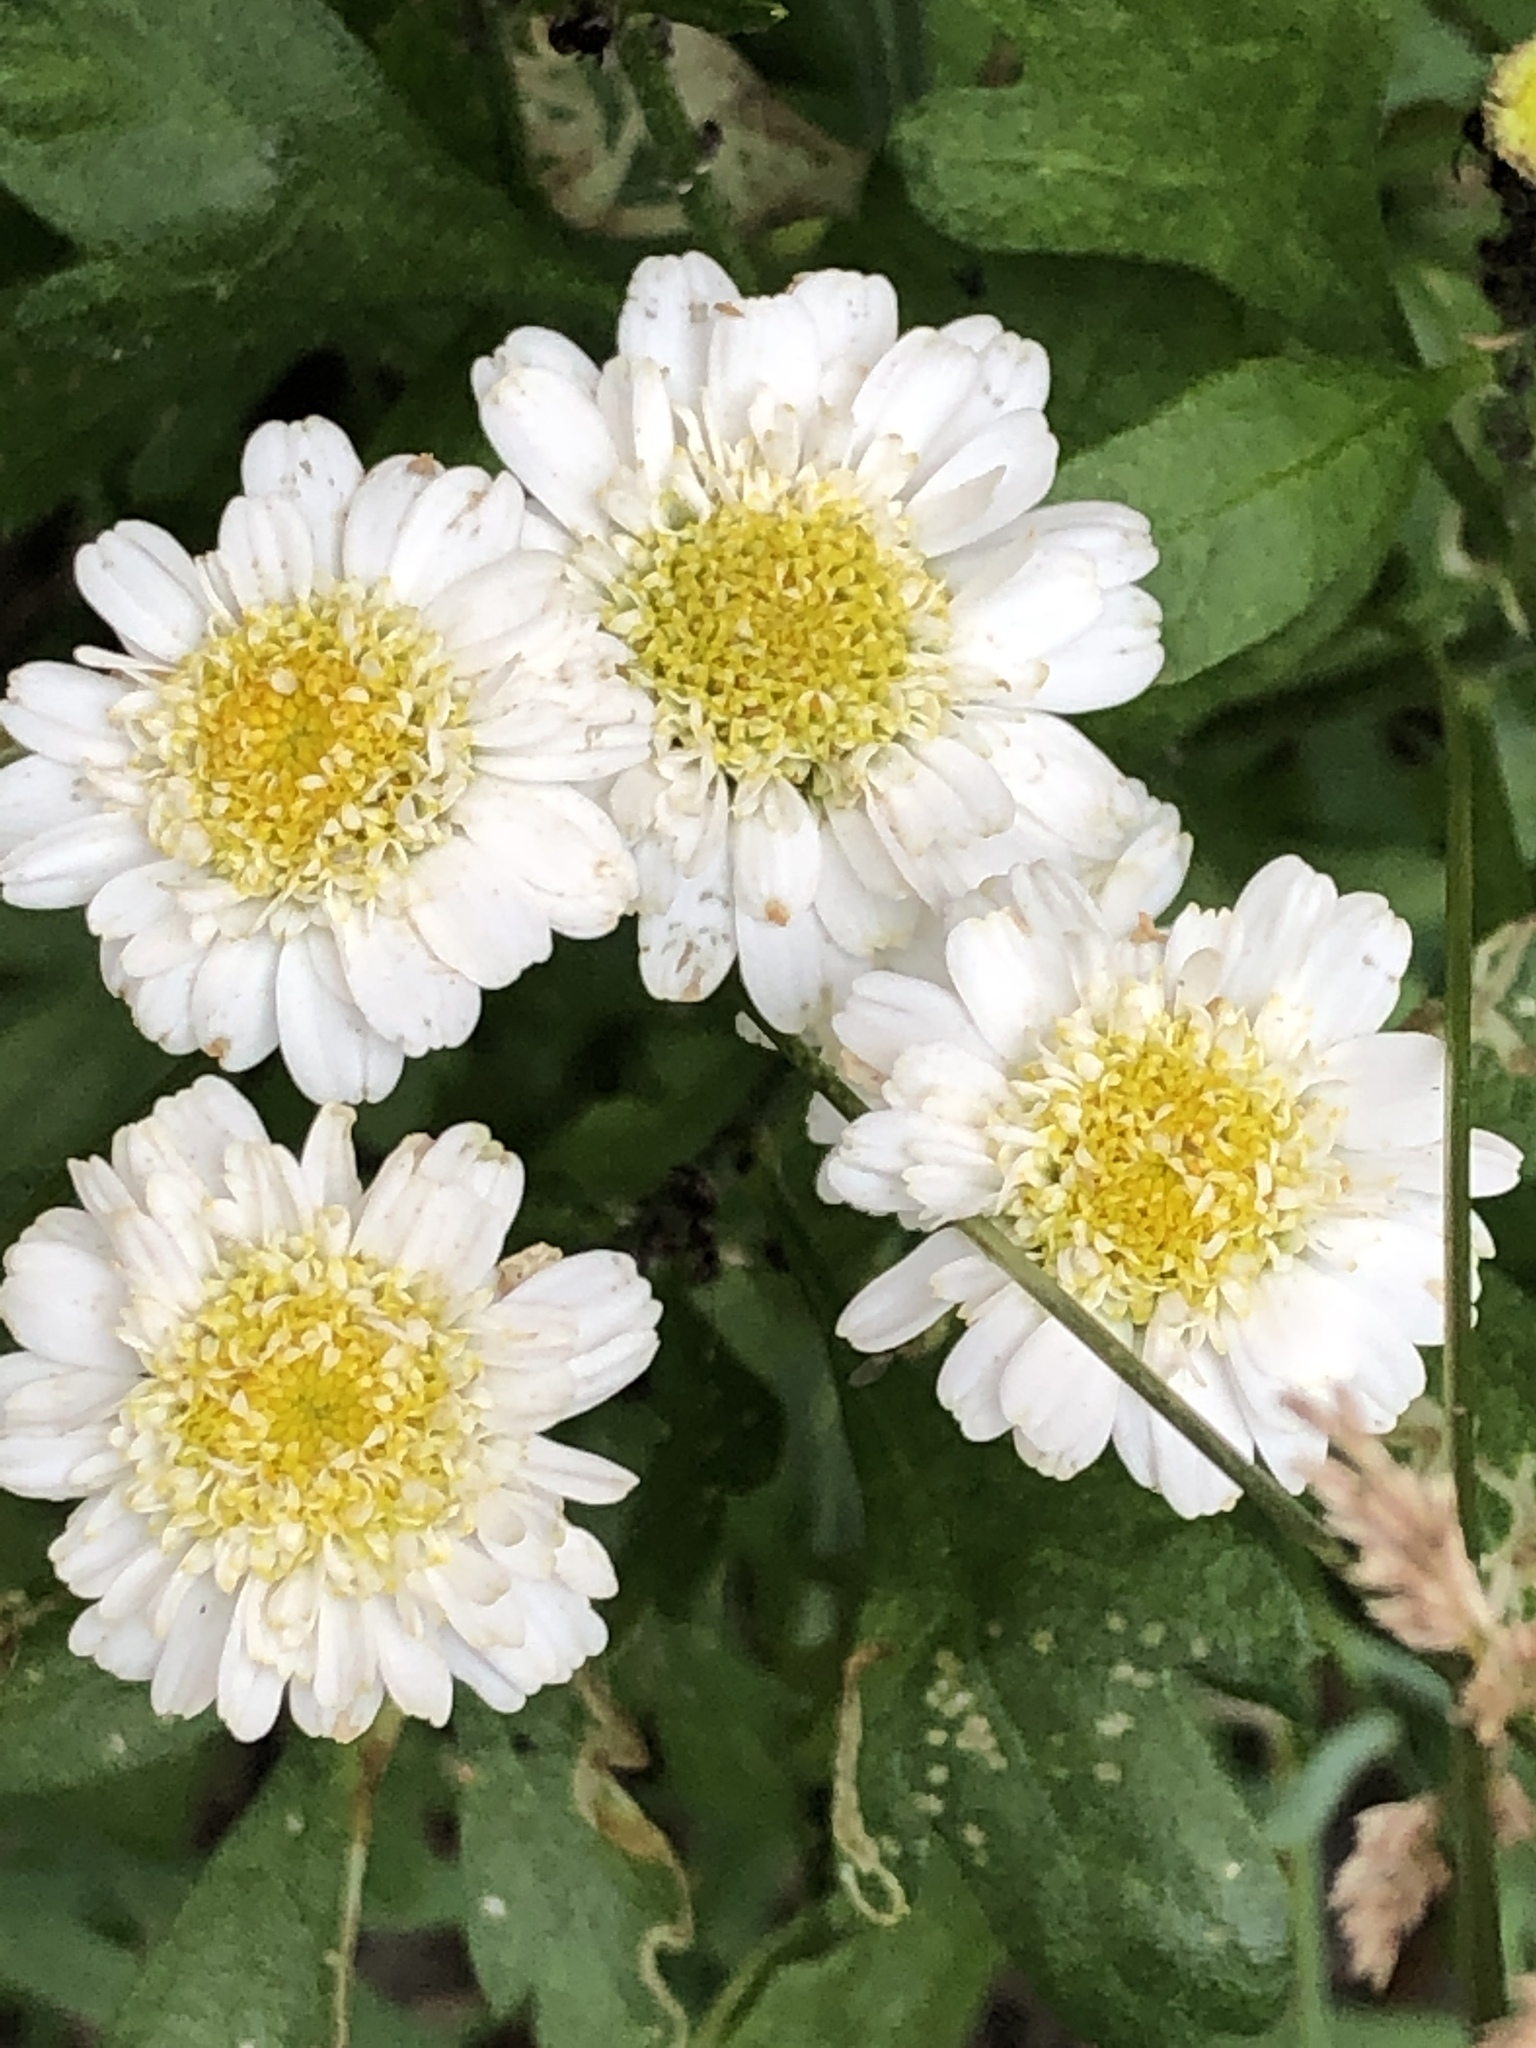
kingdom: Plantae
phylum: Tracheophyta
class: Magnoliopsida
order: Asterales
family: Asteraceae
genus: Tanacetum
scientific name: Tanacetum parthenium
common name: Feverfew
